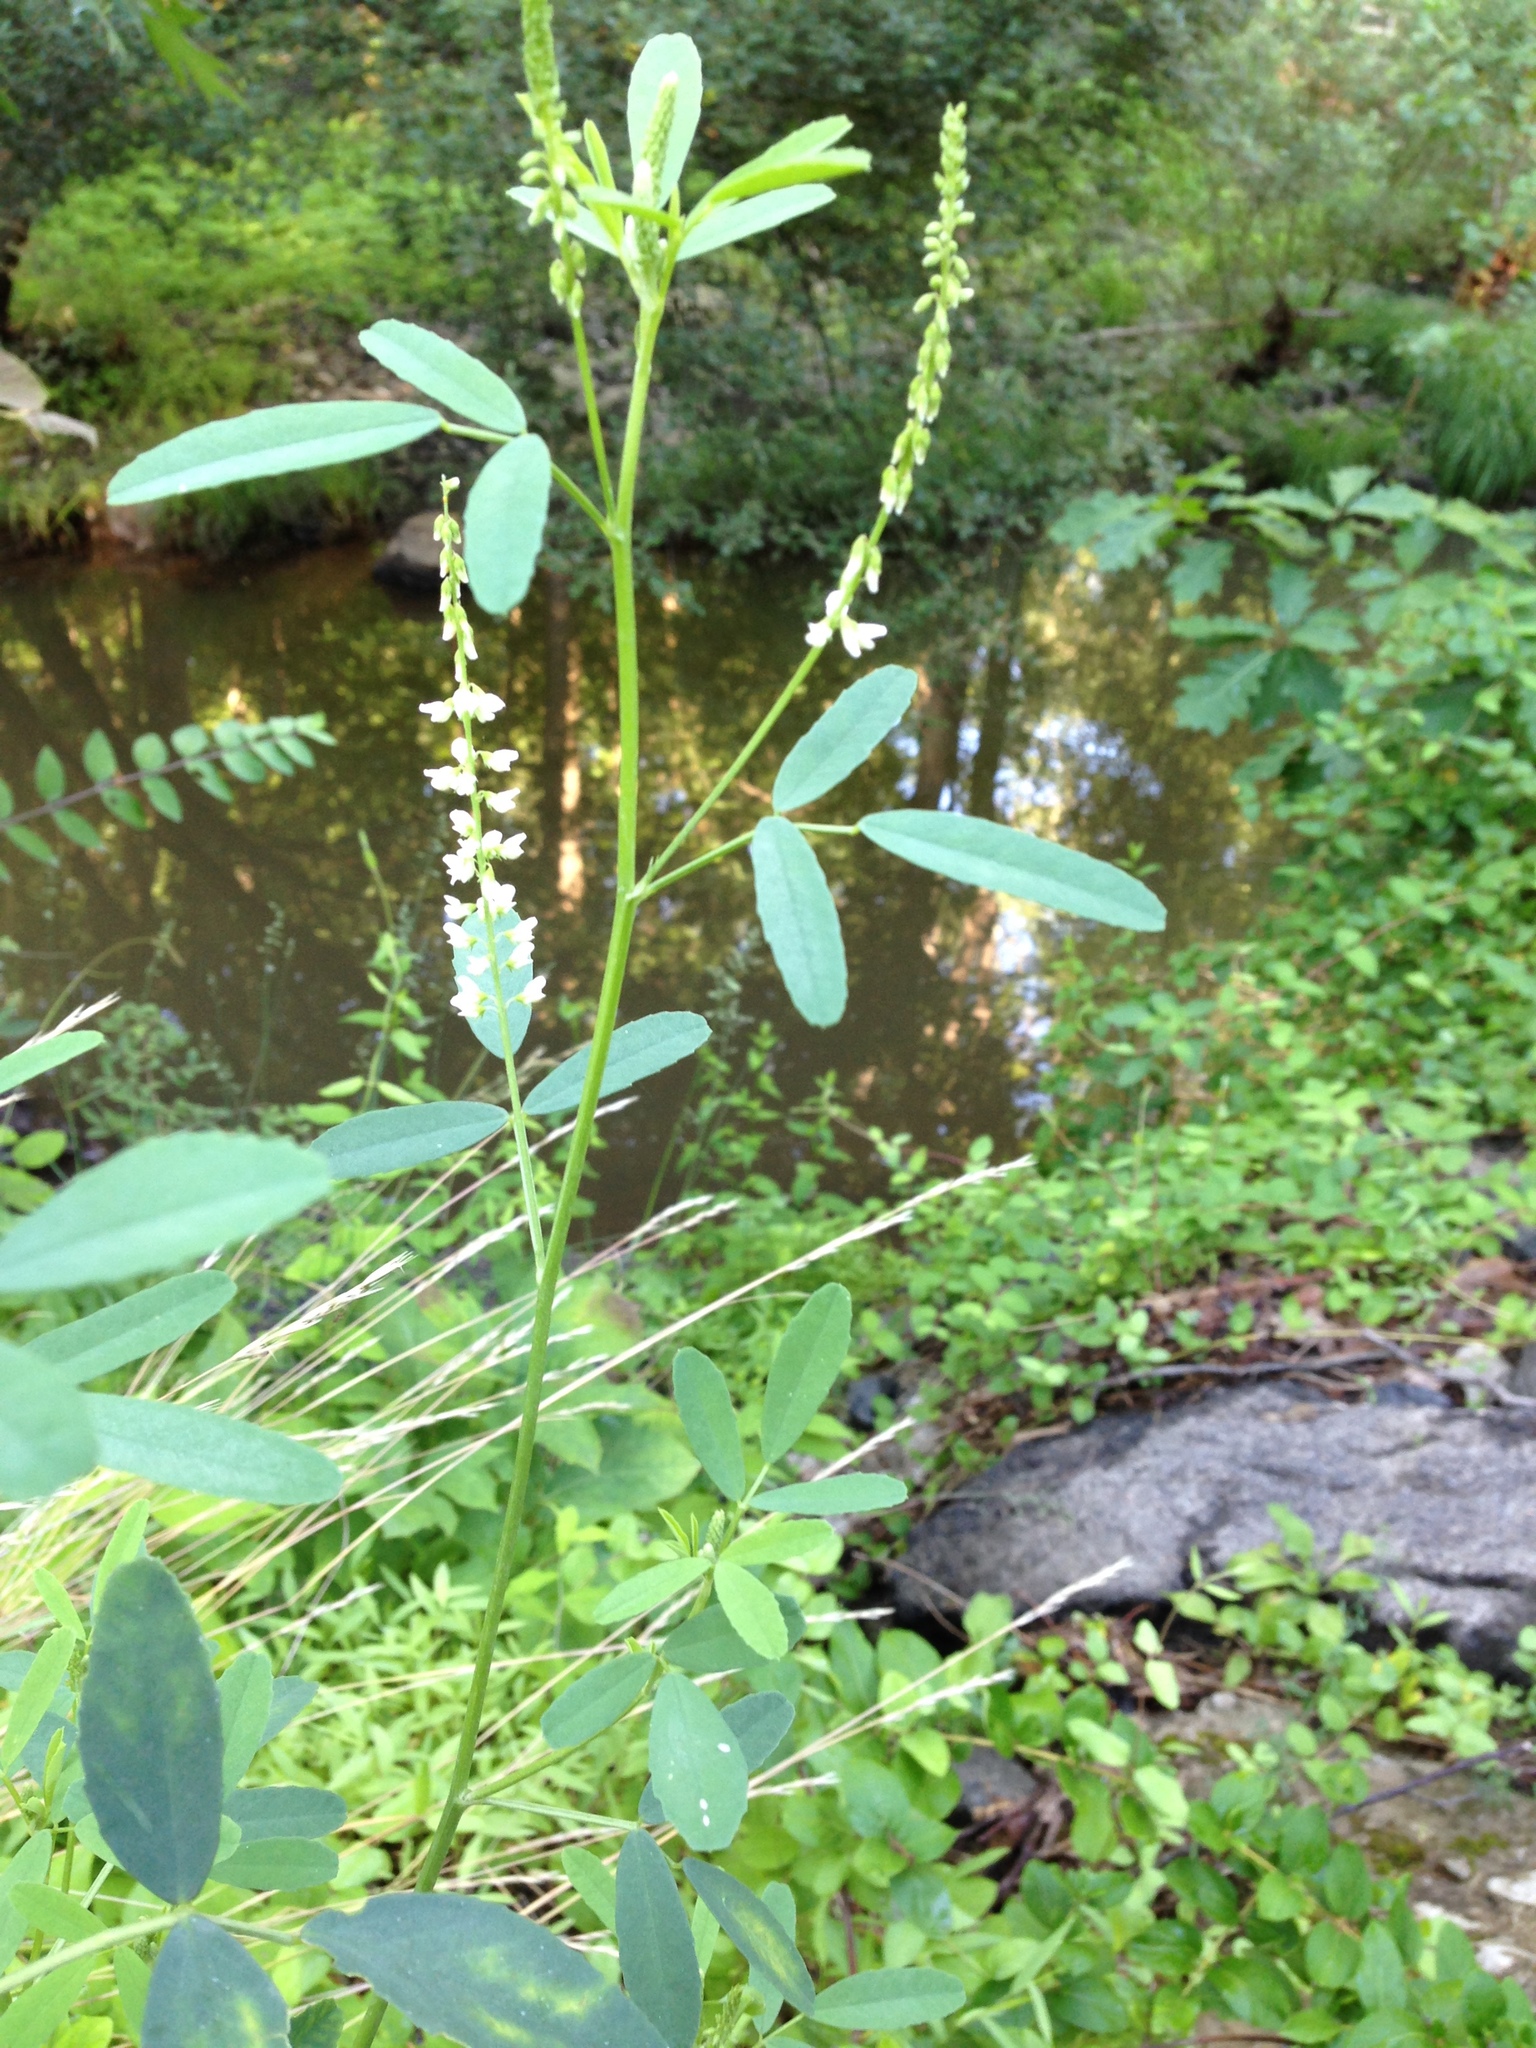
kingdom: Plantae
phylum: Tracheophyta
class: Magnoliopsida
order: Fabales
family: Fabaceae
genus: Melilotus
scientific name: Melilotus albus
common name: White melilot
